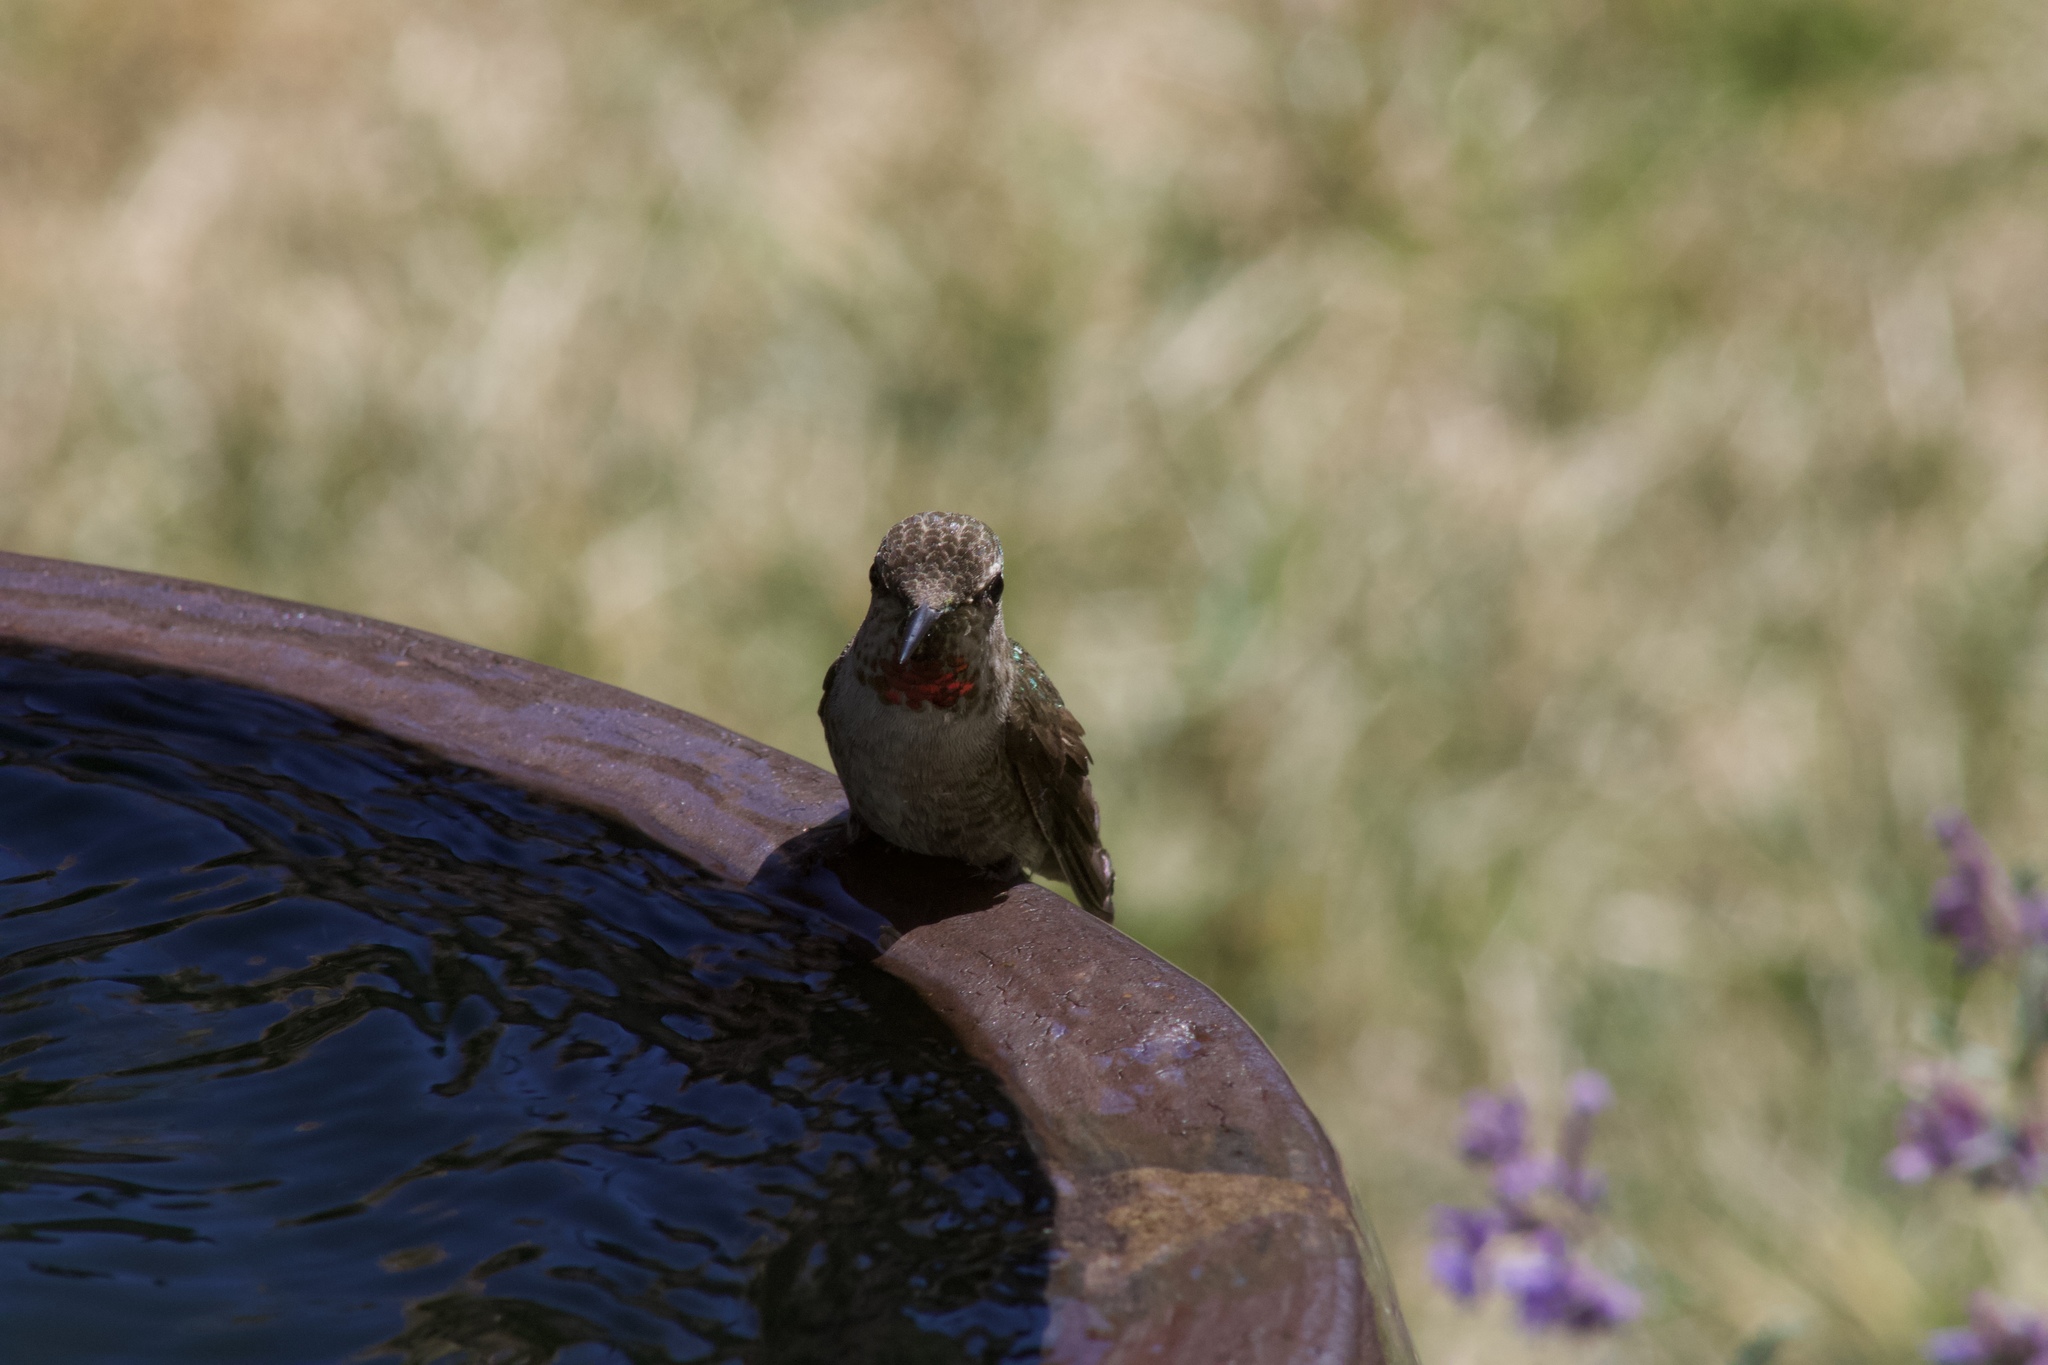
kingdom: Animalia
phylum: Chordata
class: Aves
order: Apodiformes
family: Trochilidae
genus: Calypte
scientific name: Calypte anna
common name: Anna's hummingbird
